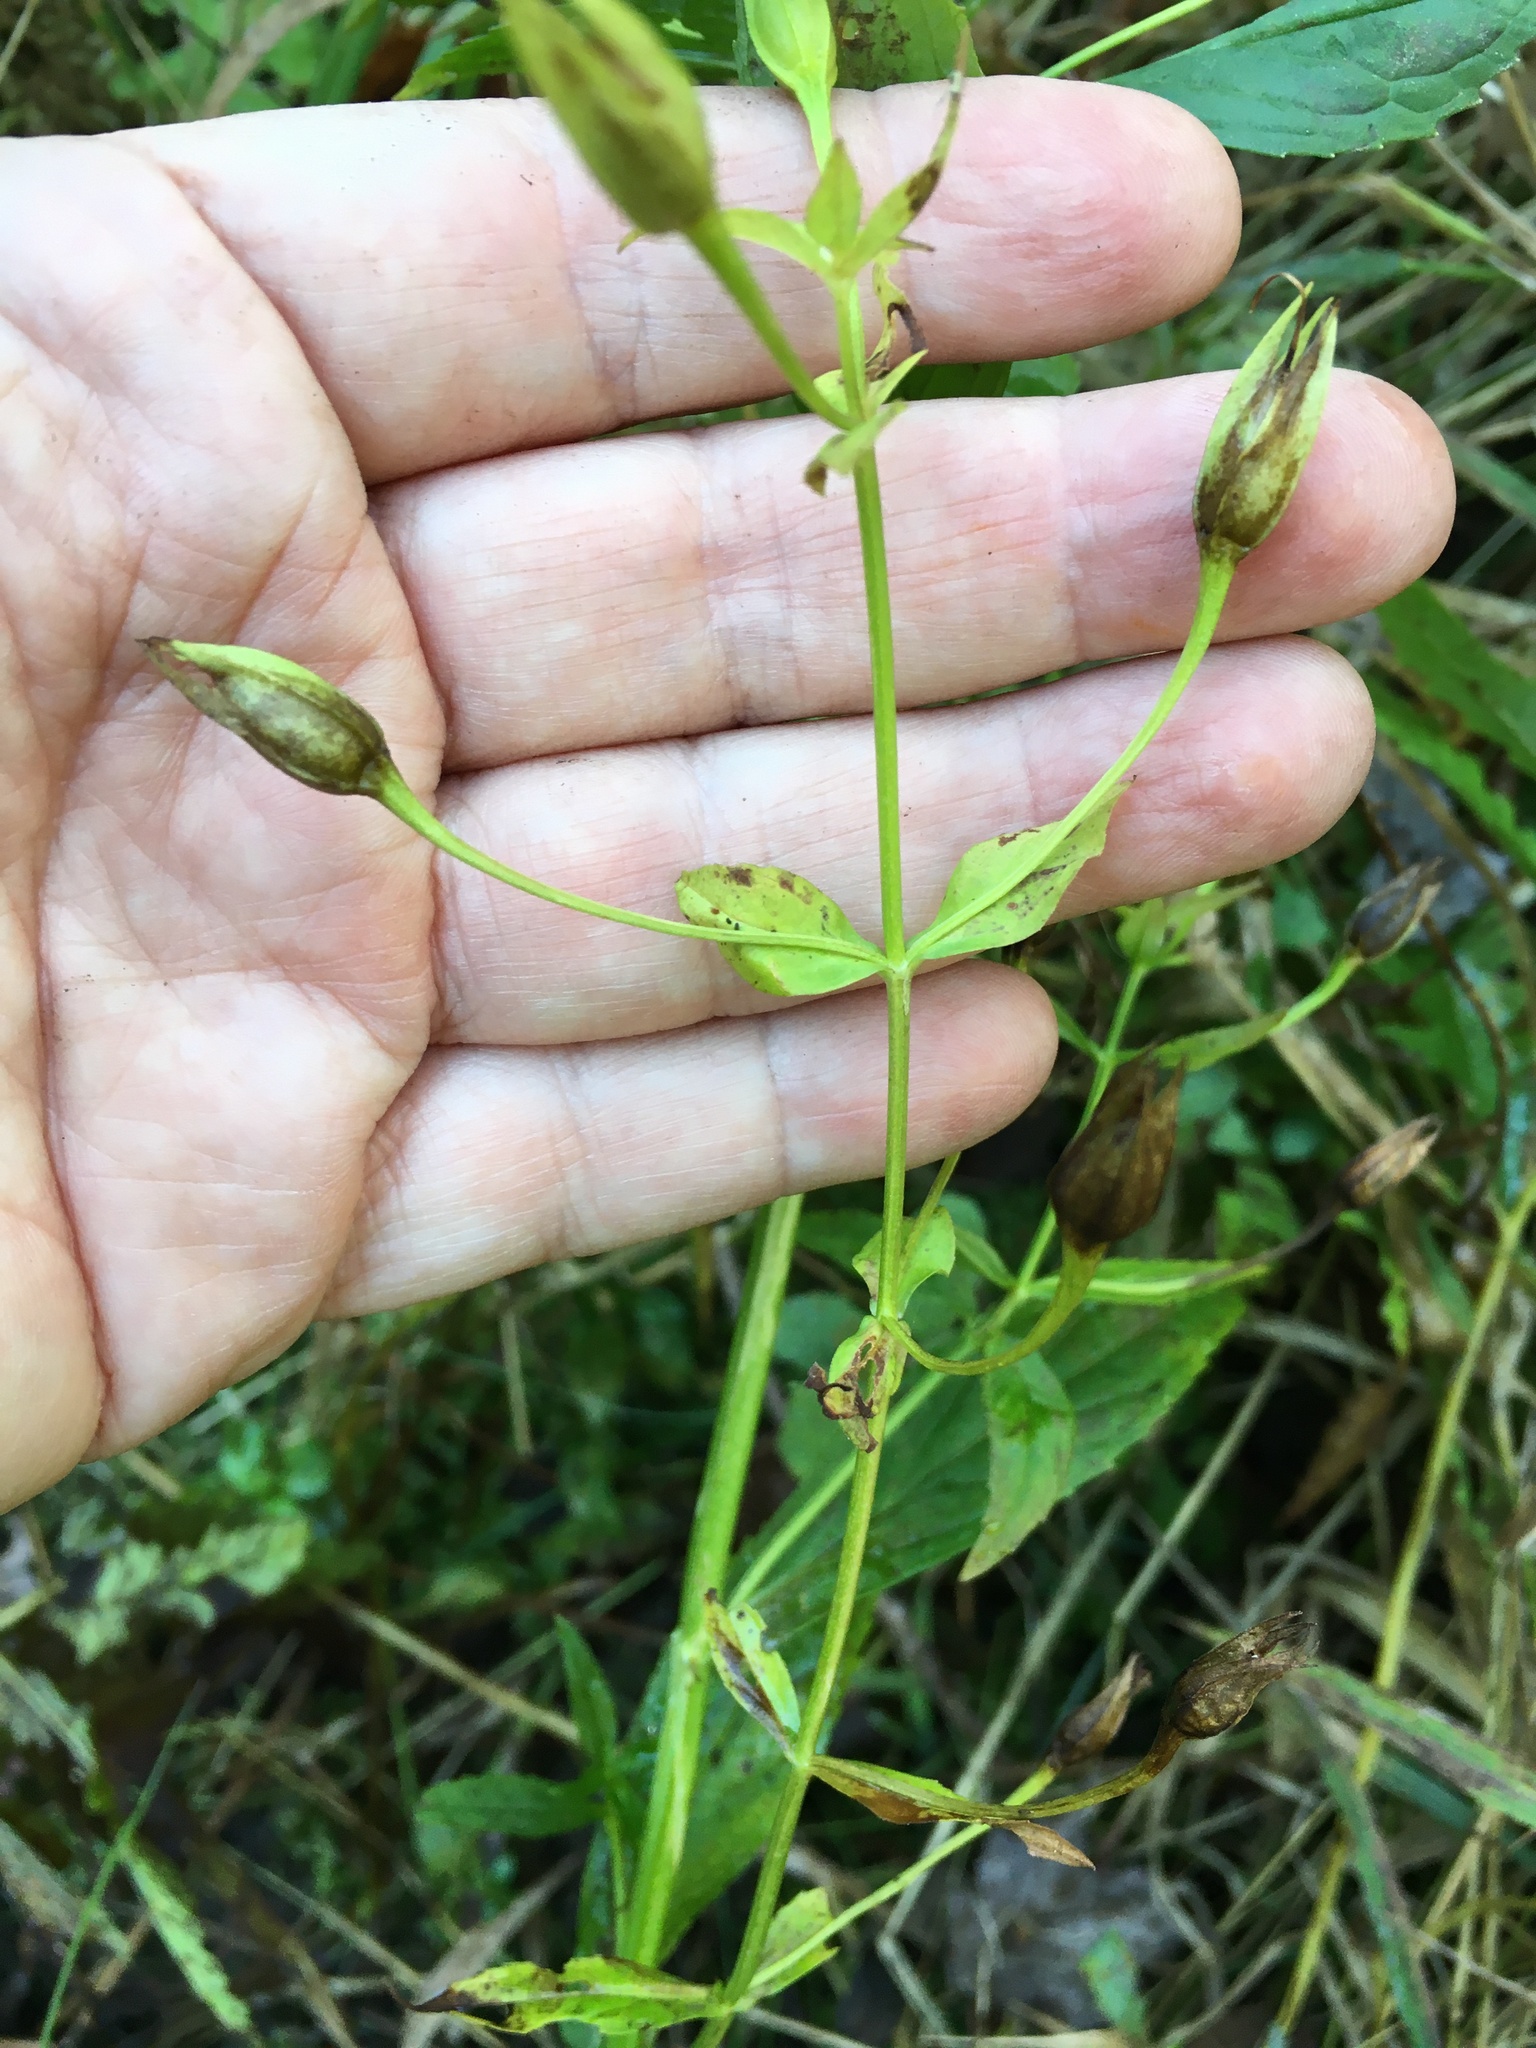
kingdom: Plantae
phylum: Tracheophyta
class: Magnoliopsida
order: Lamiales
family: Phrymaceae
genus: Mimulus
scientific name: Mimulus ringens
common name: Allegheny monkeyflower
